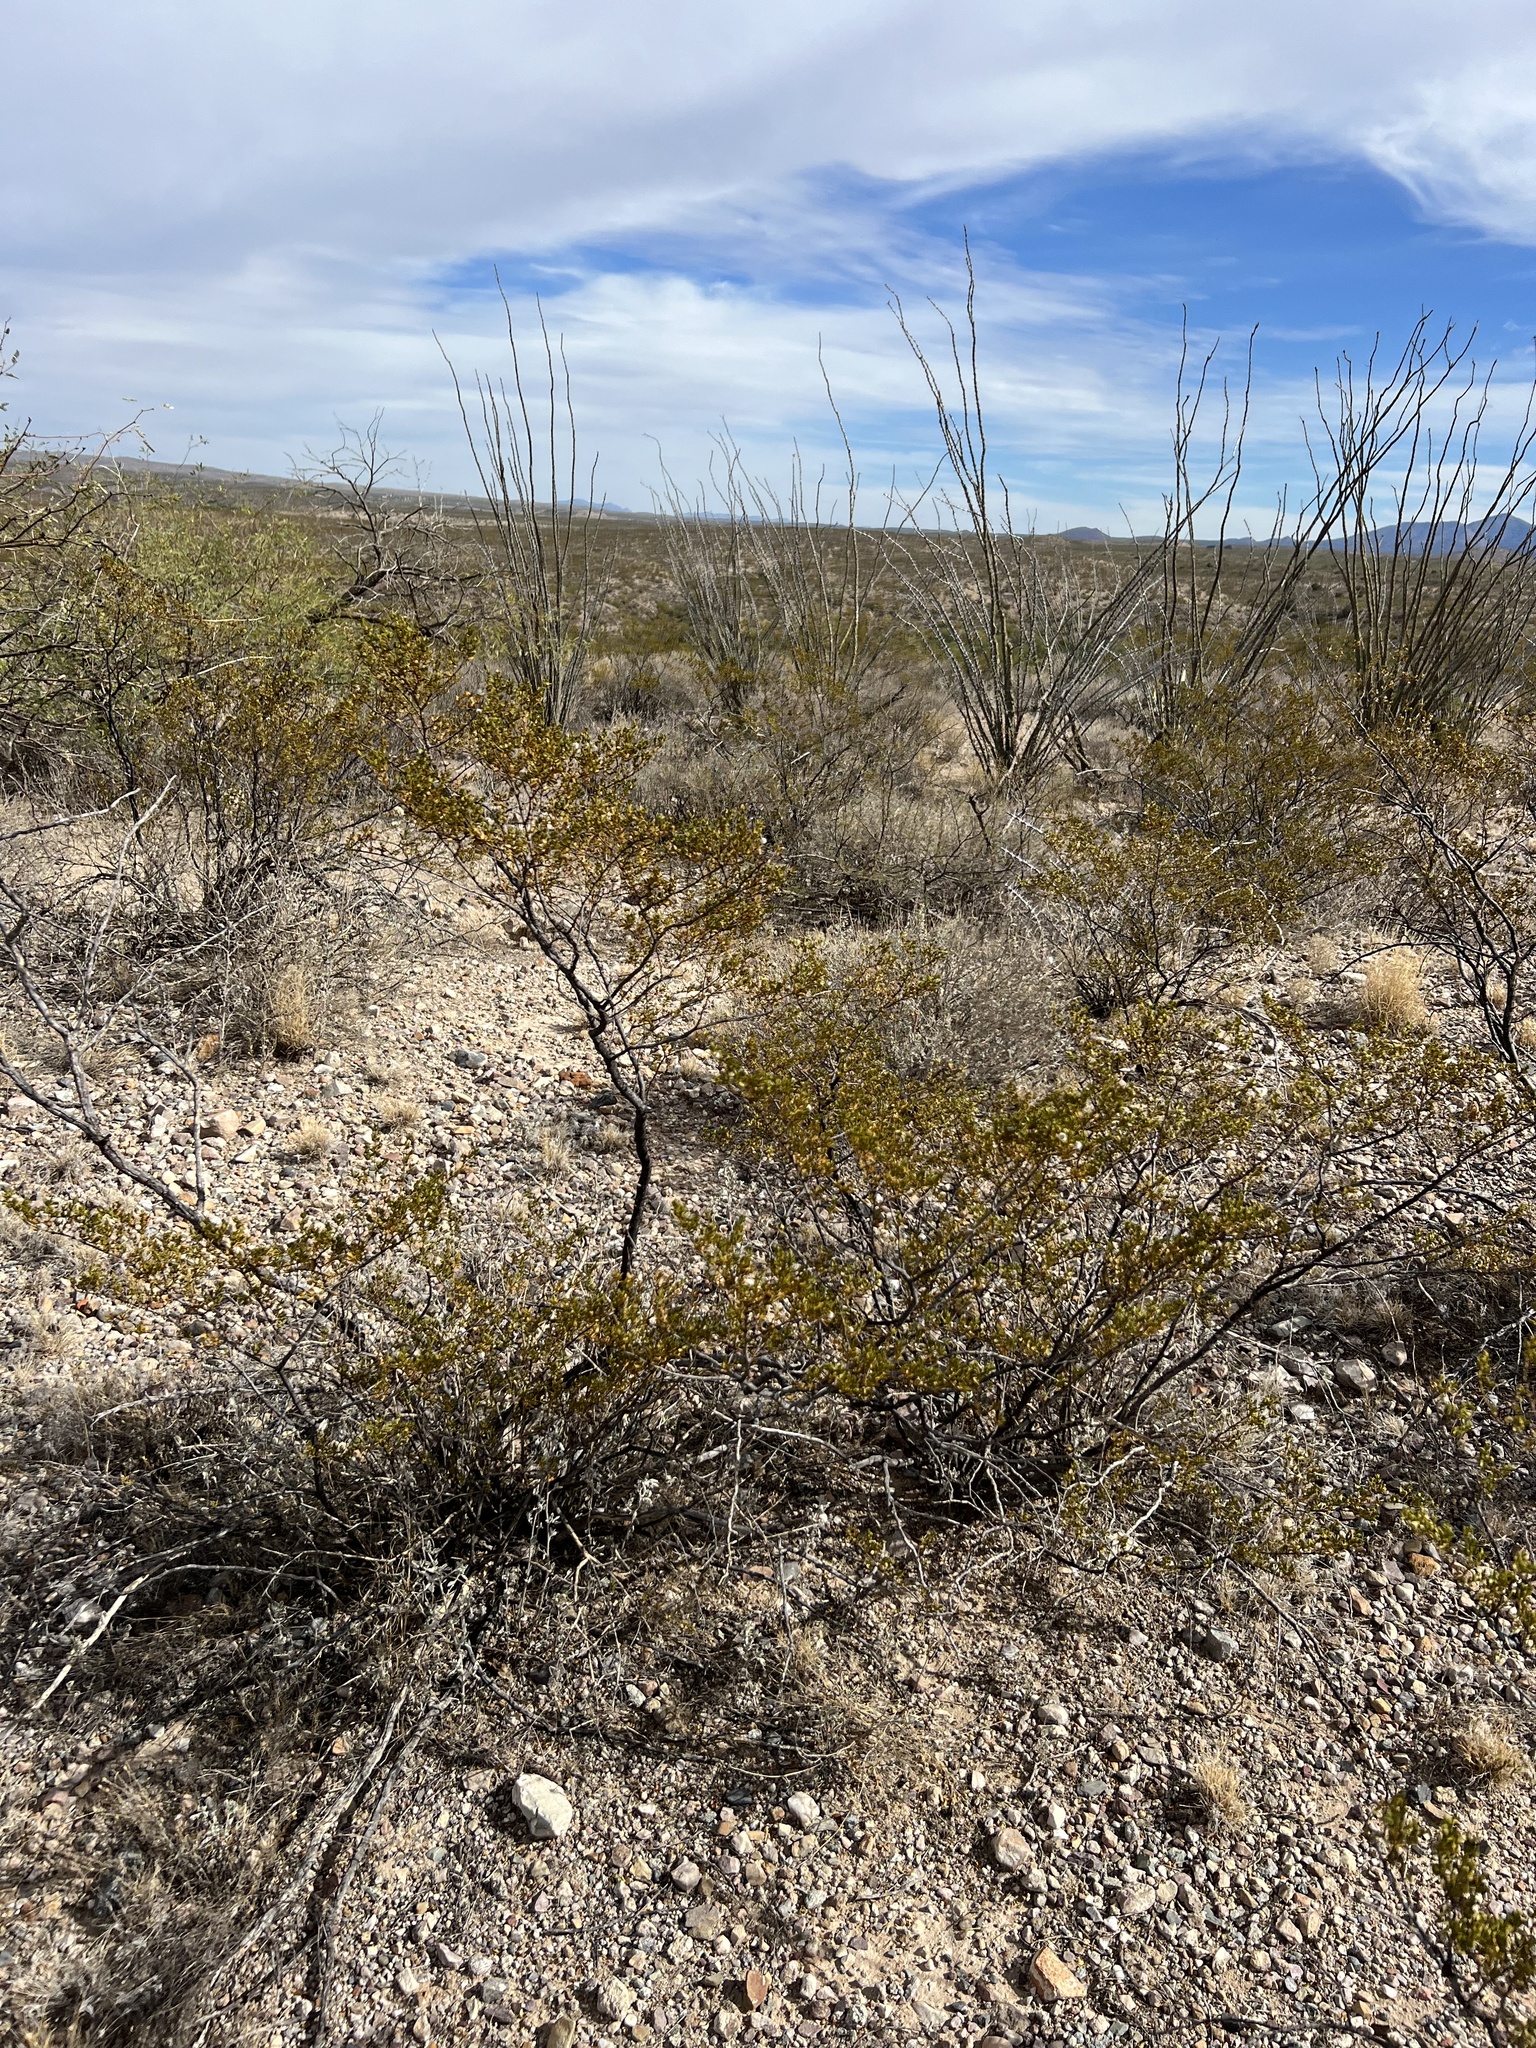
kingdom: Plantae
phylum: Tracheophyta
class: Magnoliopsida
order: Zygophyllales
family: Zygophyllaceae
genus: Larrea
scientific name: Larrea tridentata
